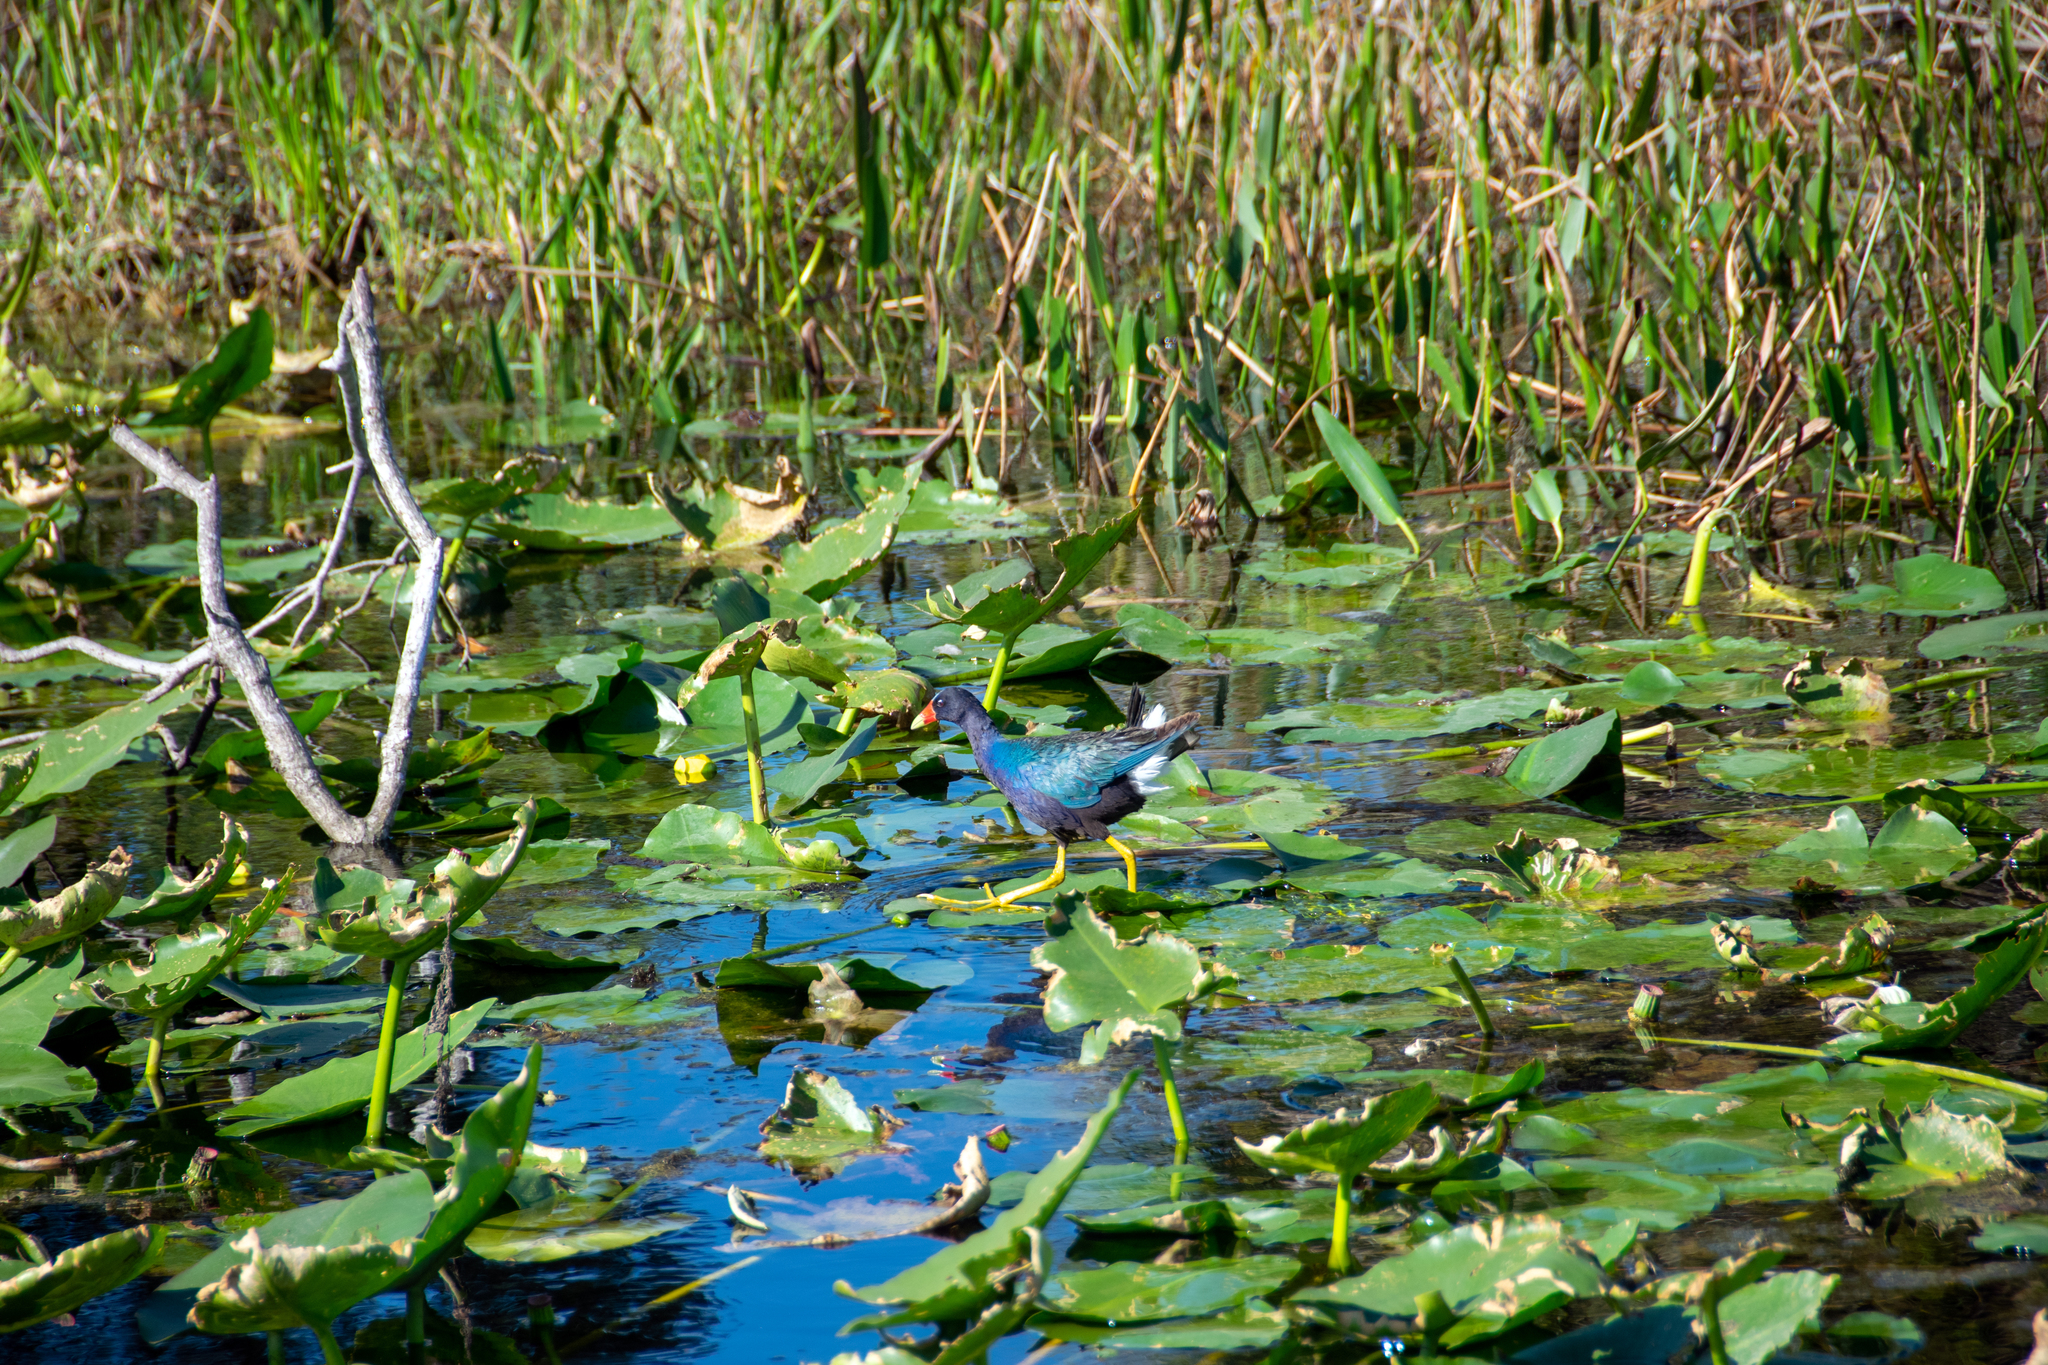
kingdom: Animalia
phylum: Chordata
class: Aves
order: Gruiformes
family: Rallidae
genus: Porphyrio
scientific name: Porphyrio martinica
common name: Purple gallinule
